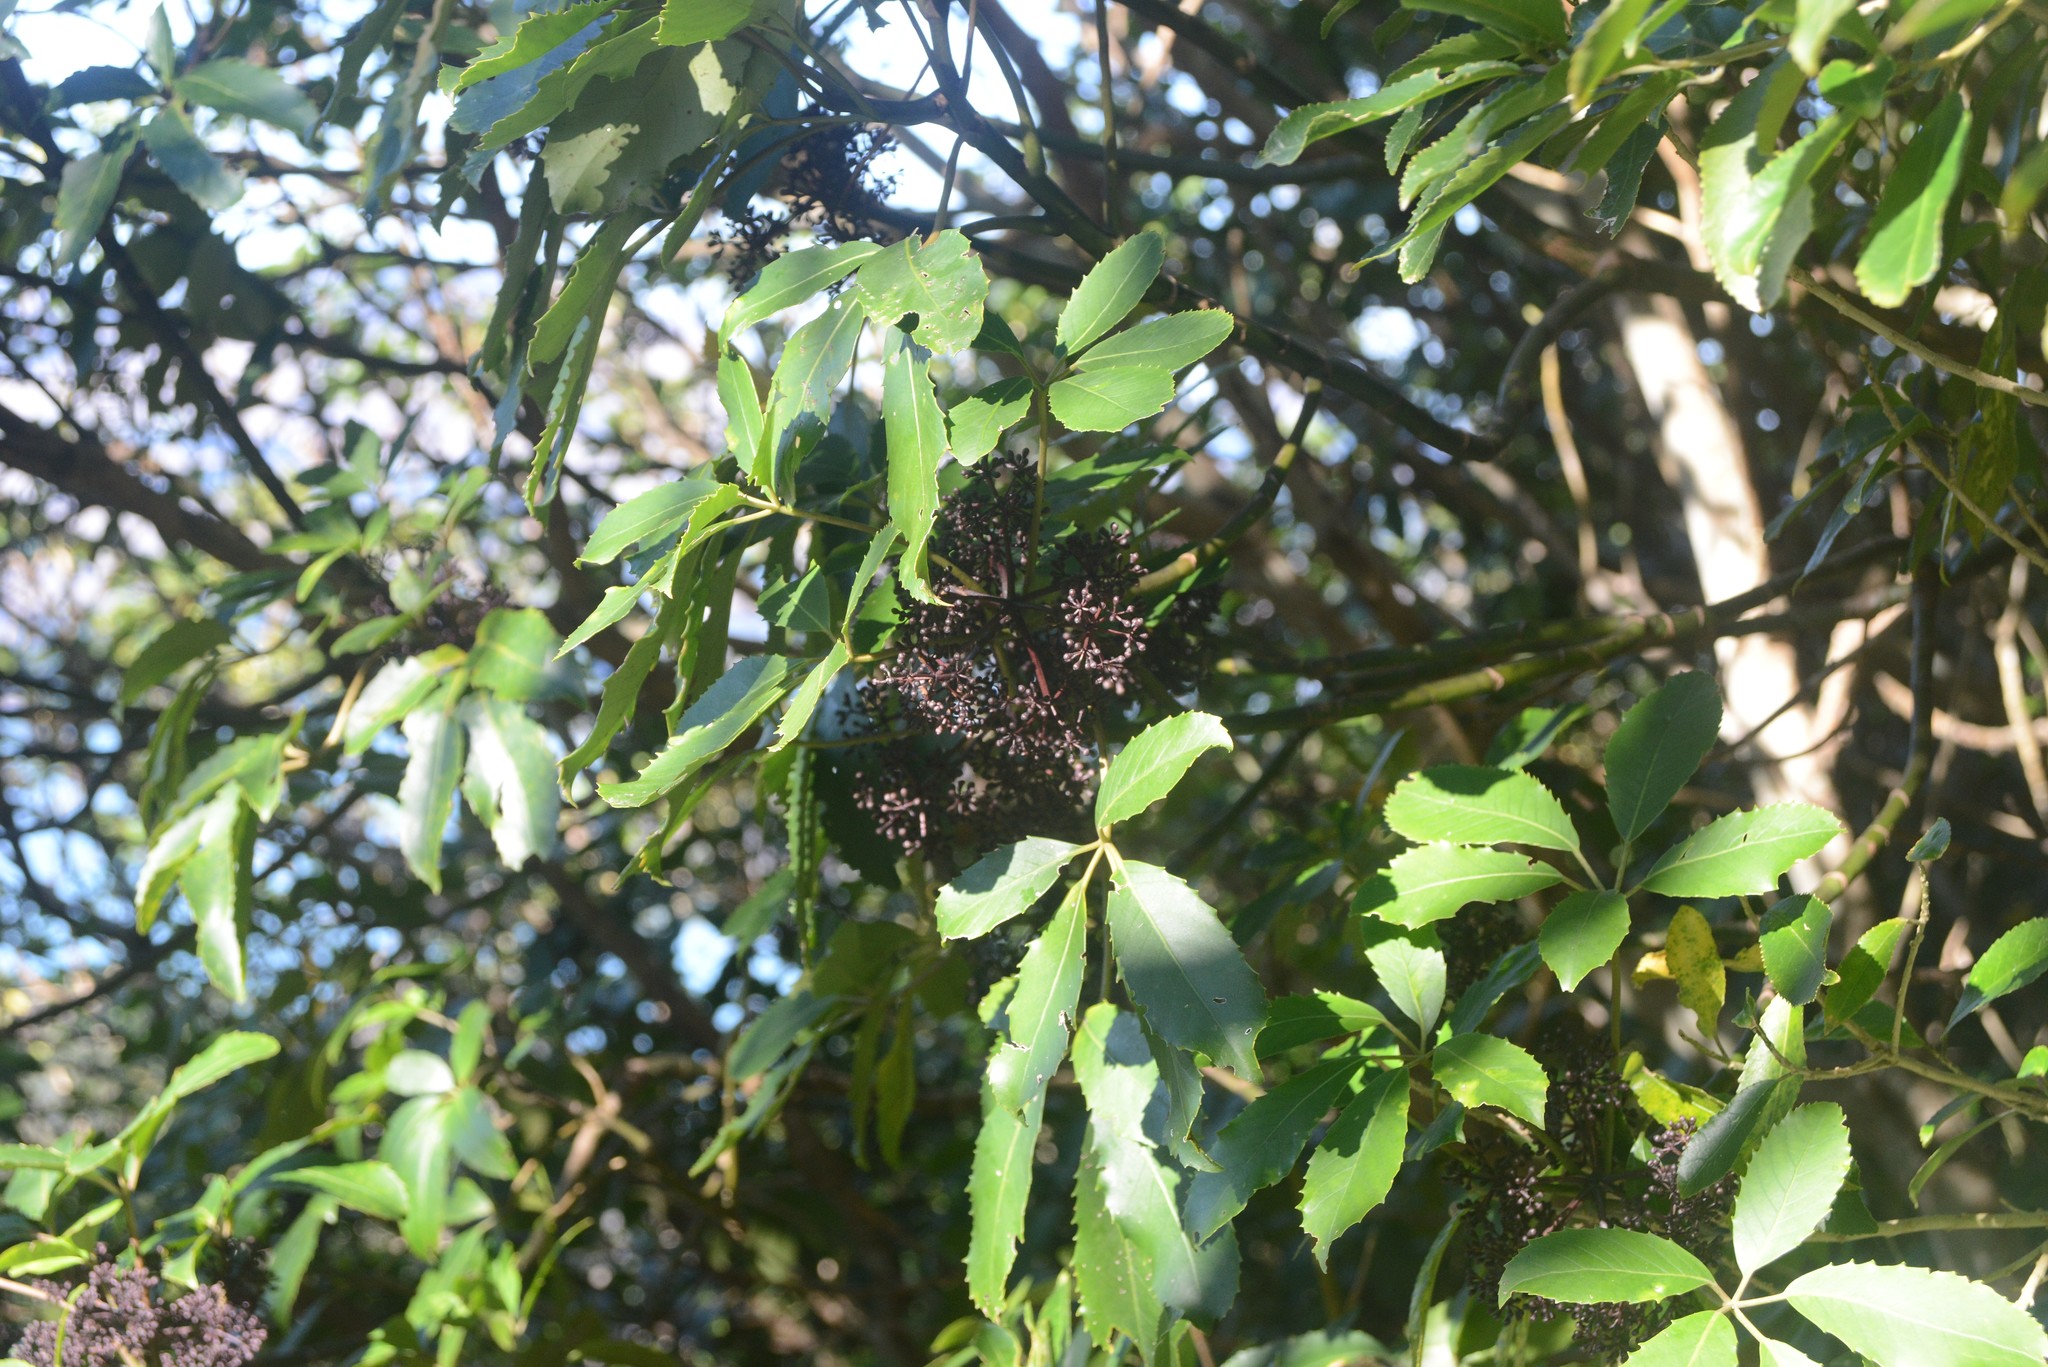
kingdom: Plantae
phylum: Tracheophyta
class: Magnoliopsida
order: Apiales
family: Araliaceae
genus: Neopanax
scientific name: Neopanax arboreus
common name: Five-fingers
